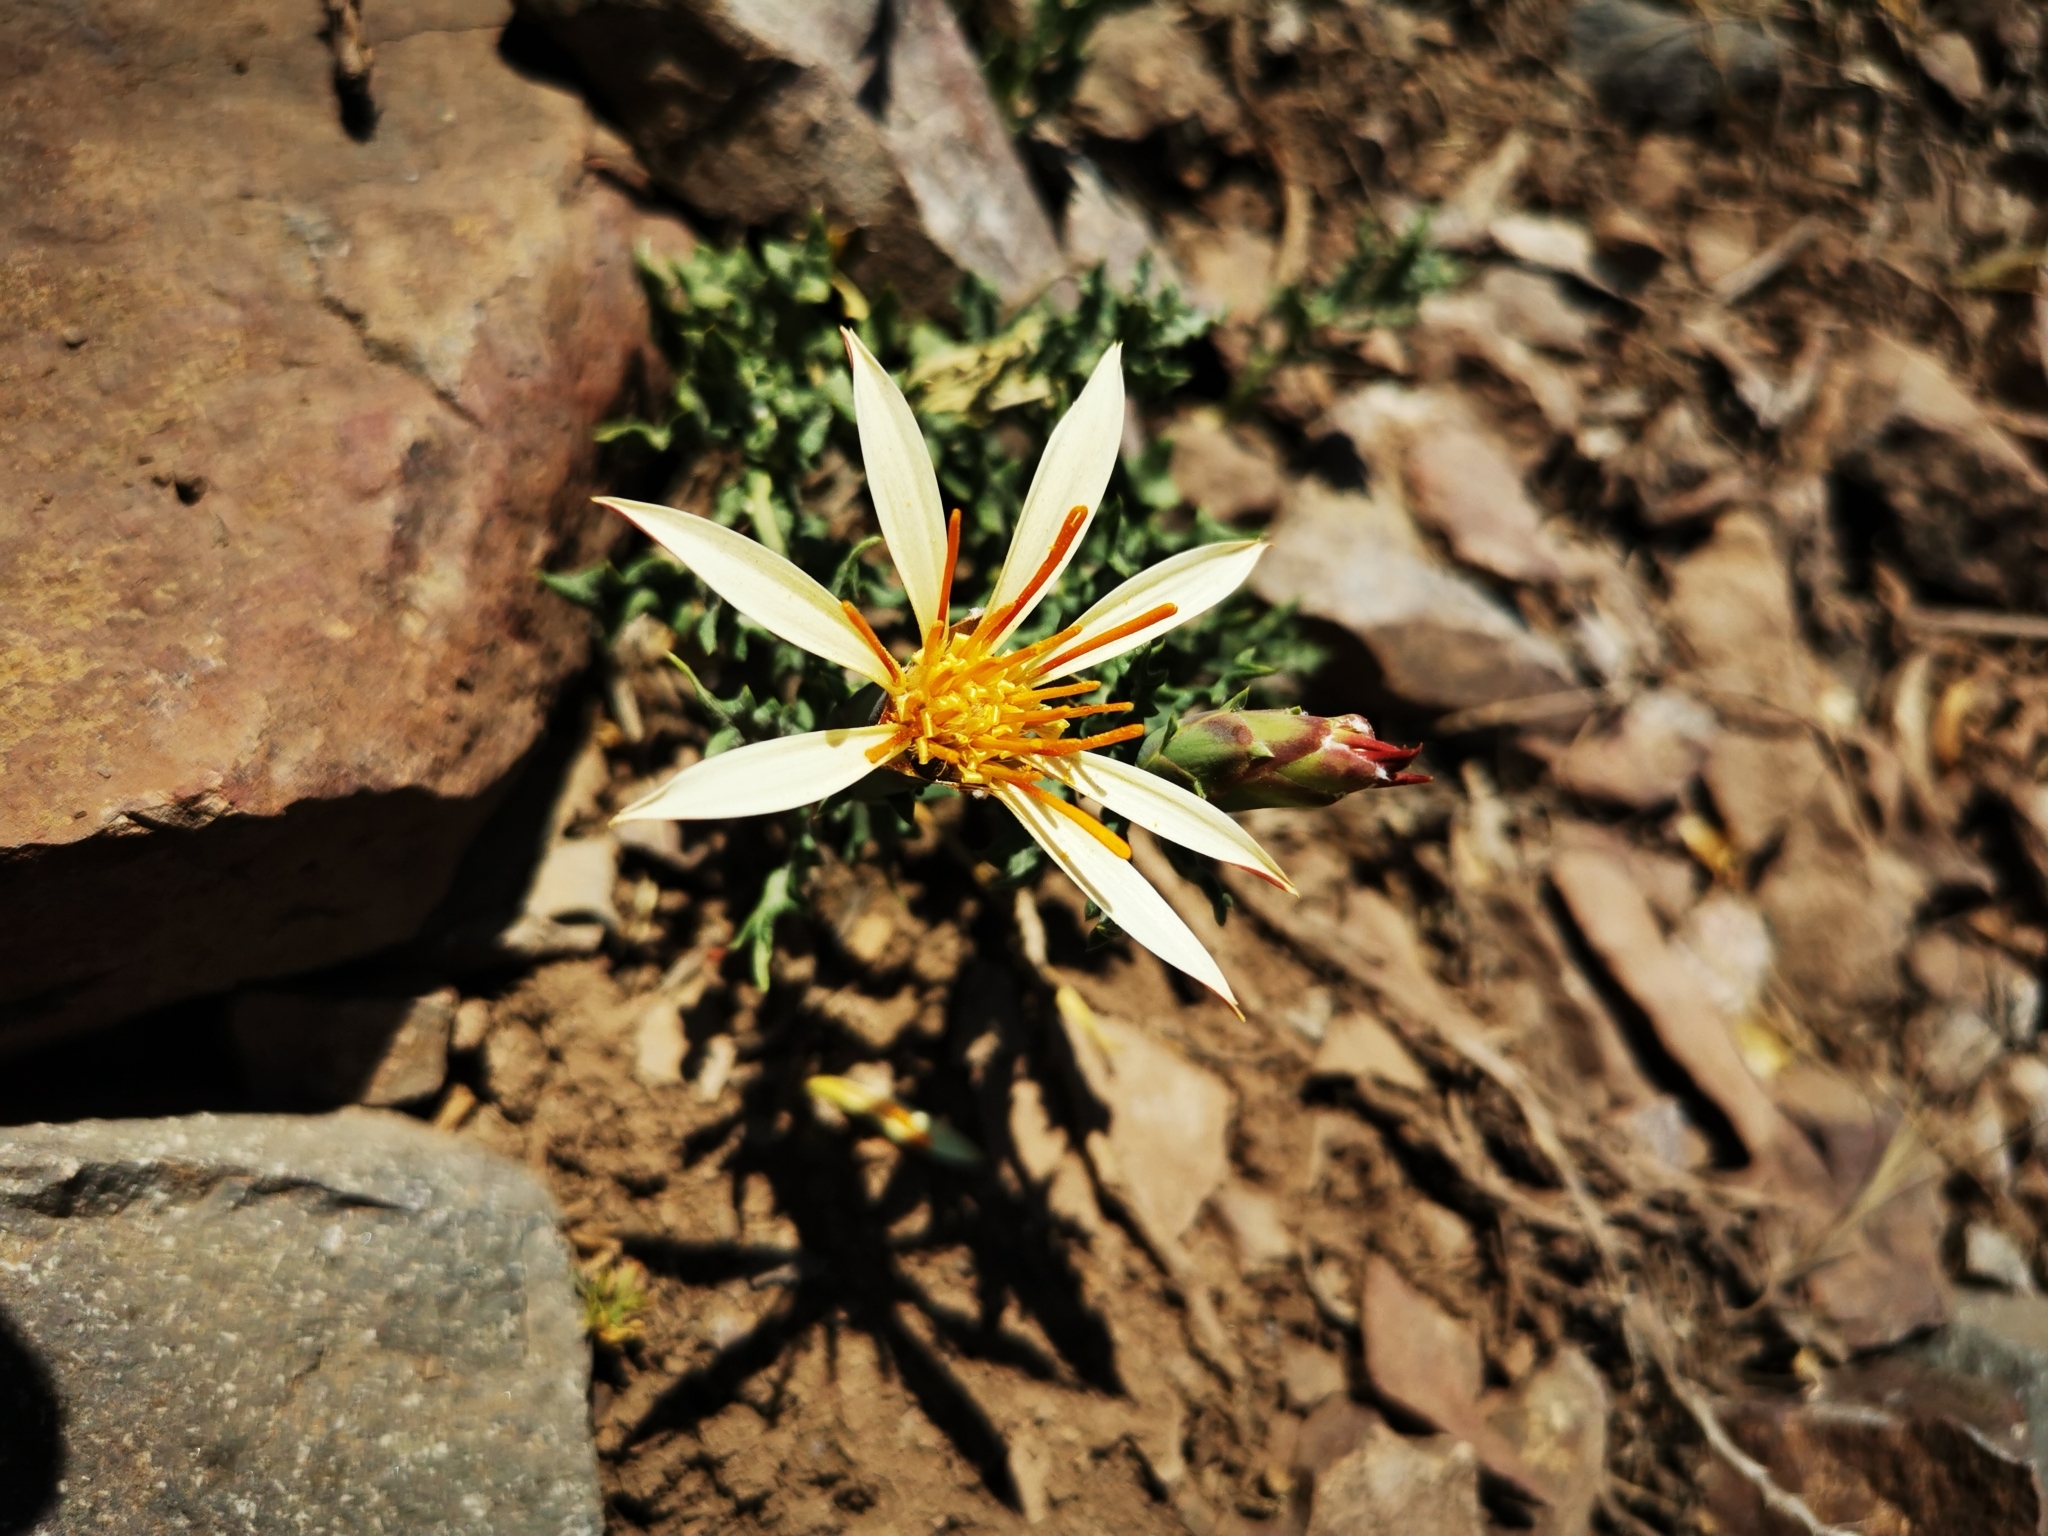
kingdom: Plantae
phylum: Tracheophyta
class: Magnoliopsida
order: Asterales
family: Asteraceae
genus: Mutisia
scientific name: Mutisia sinuata
